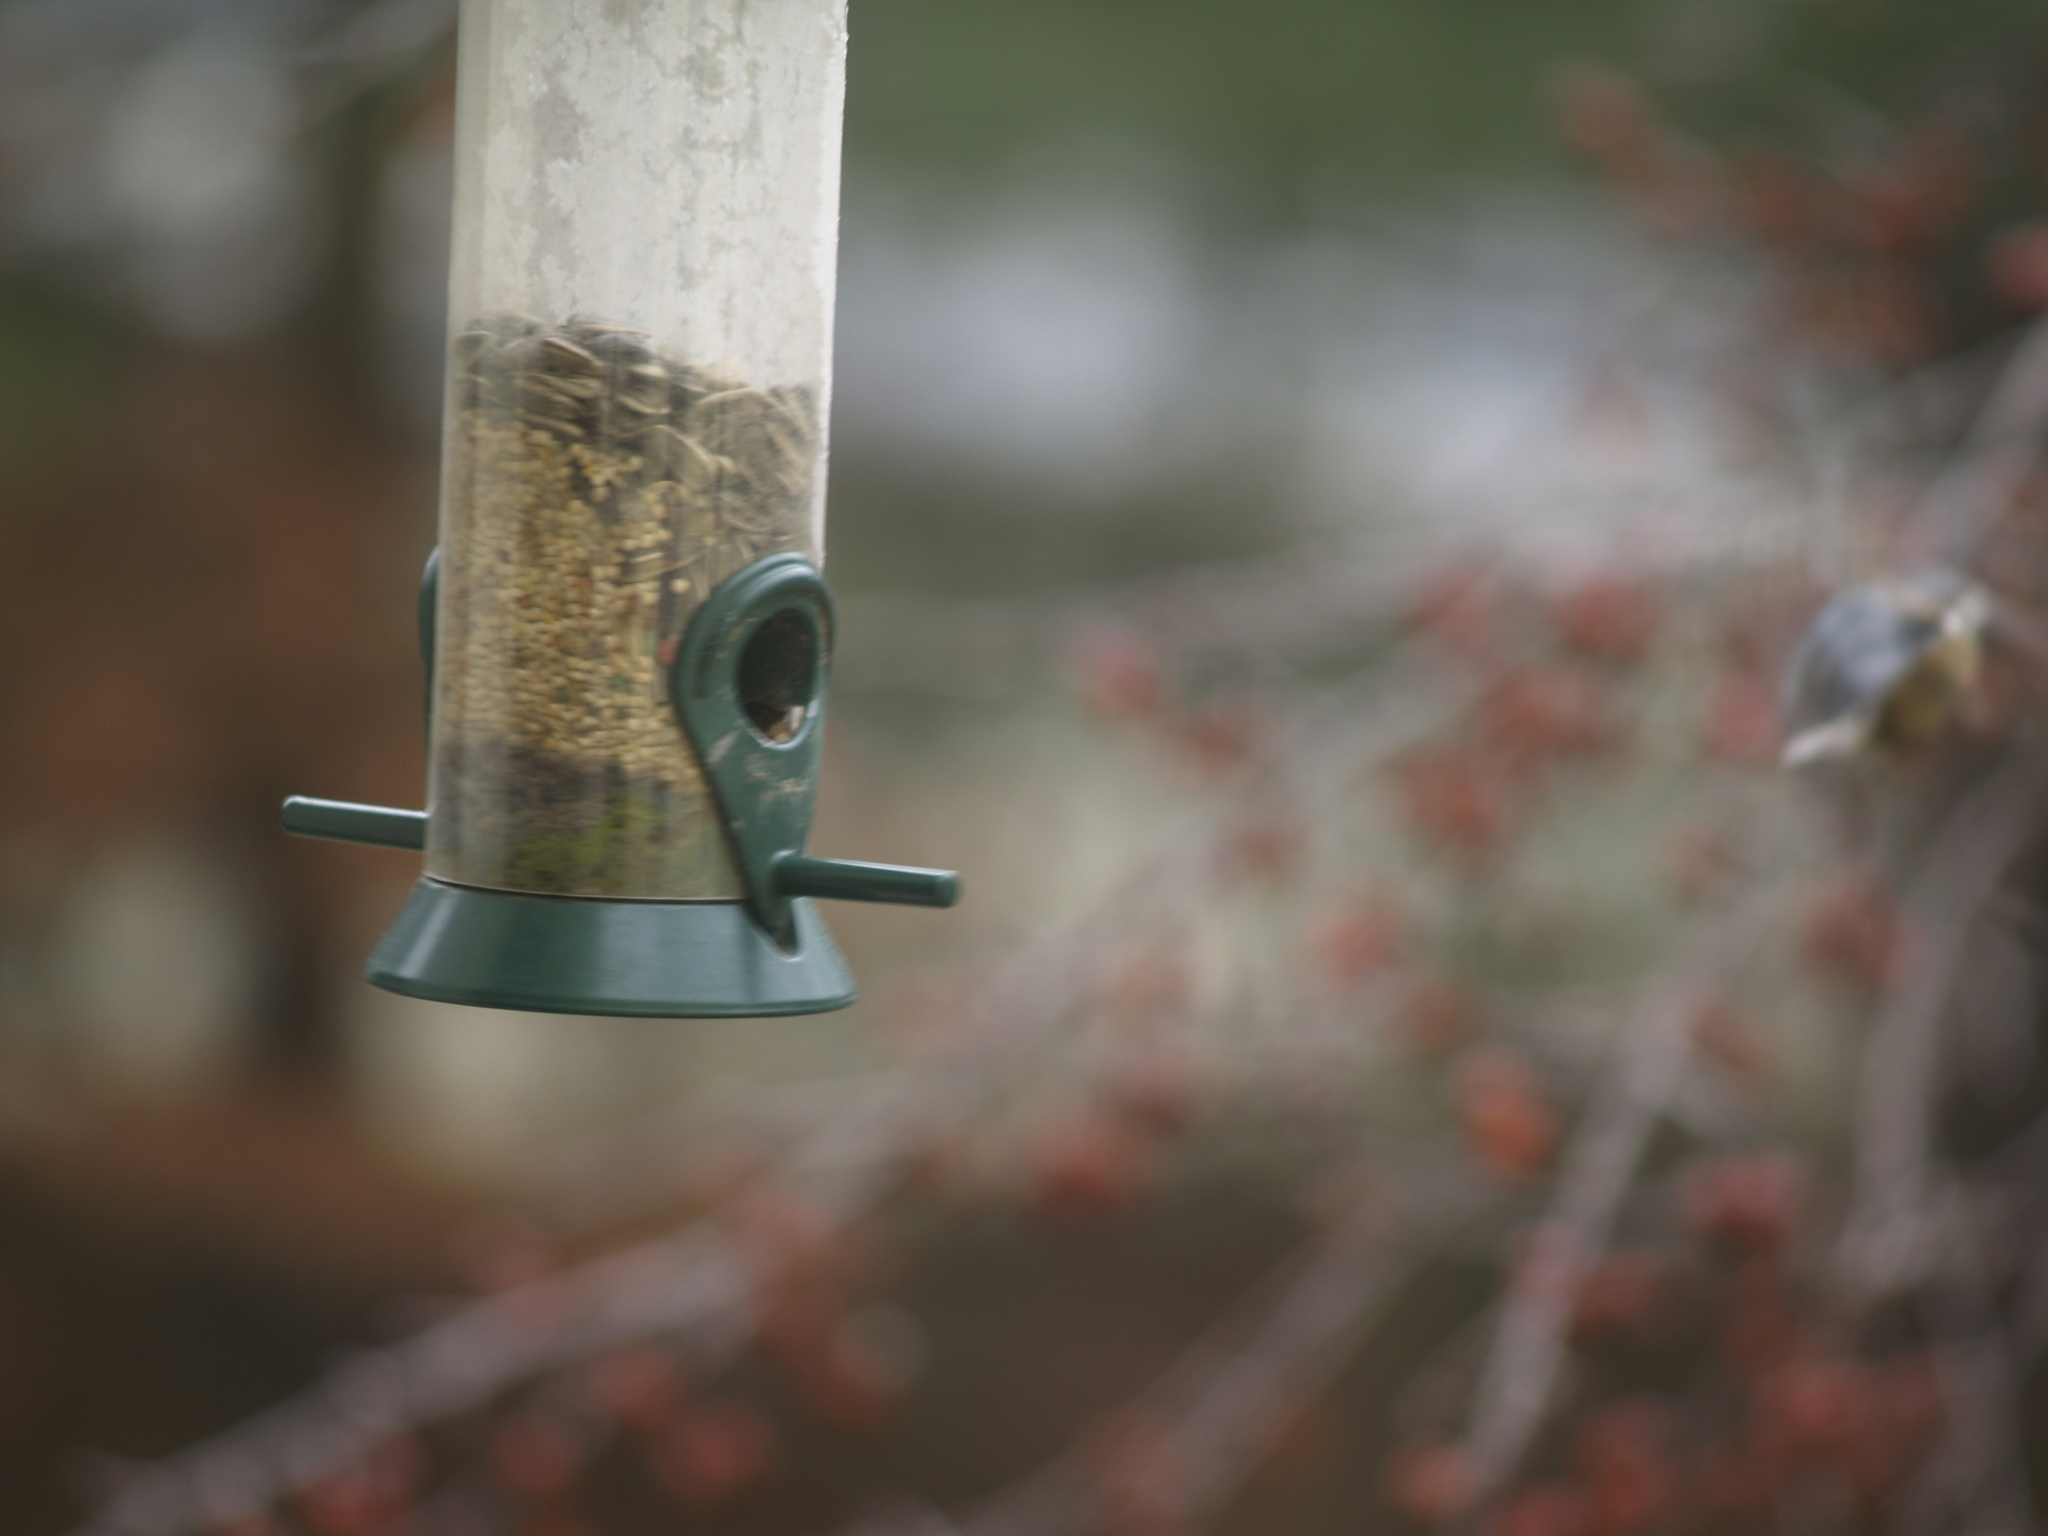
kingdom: Animalia
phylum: Chordata
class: Aves
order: Passeriformes
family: Sittidae
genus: Sitta
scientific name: Sitta canadensis
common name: Red-breasted nuthatch
